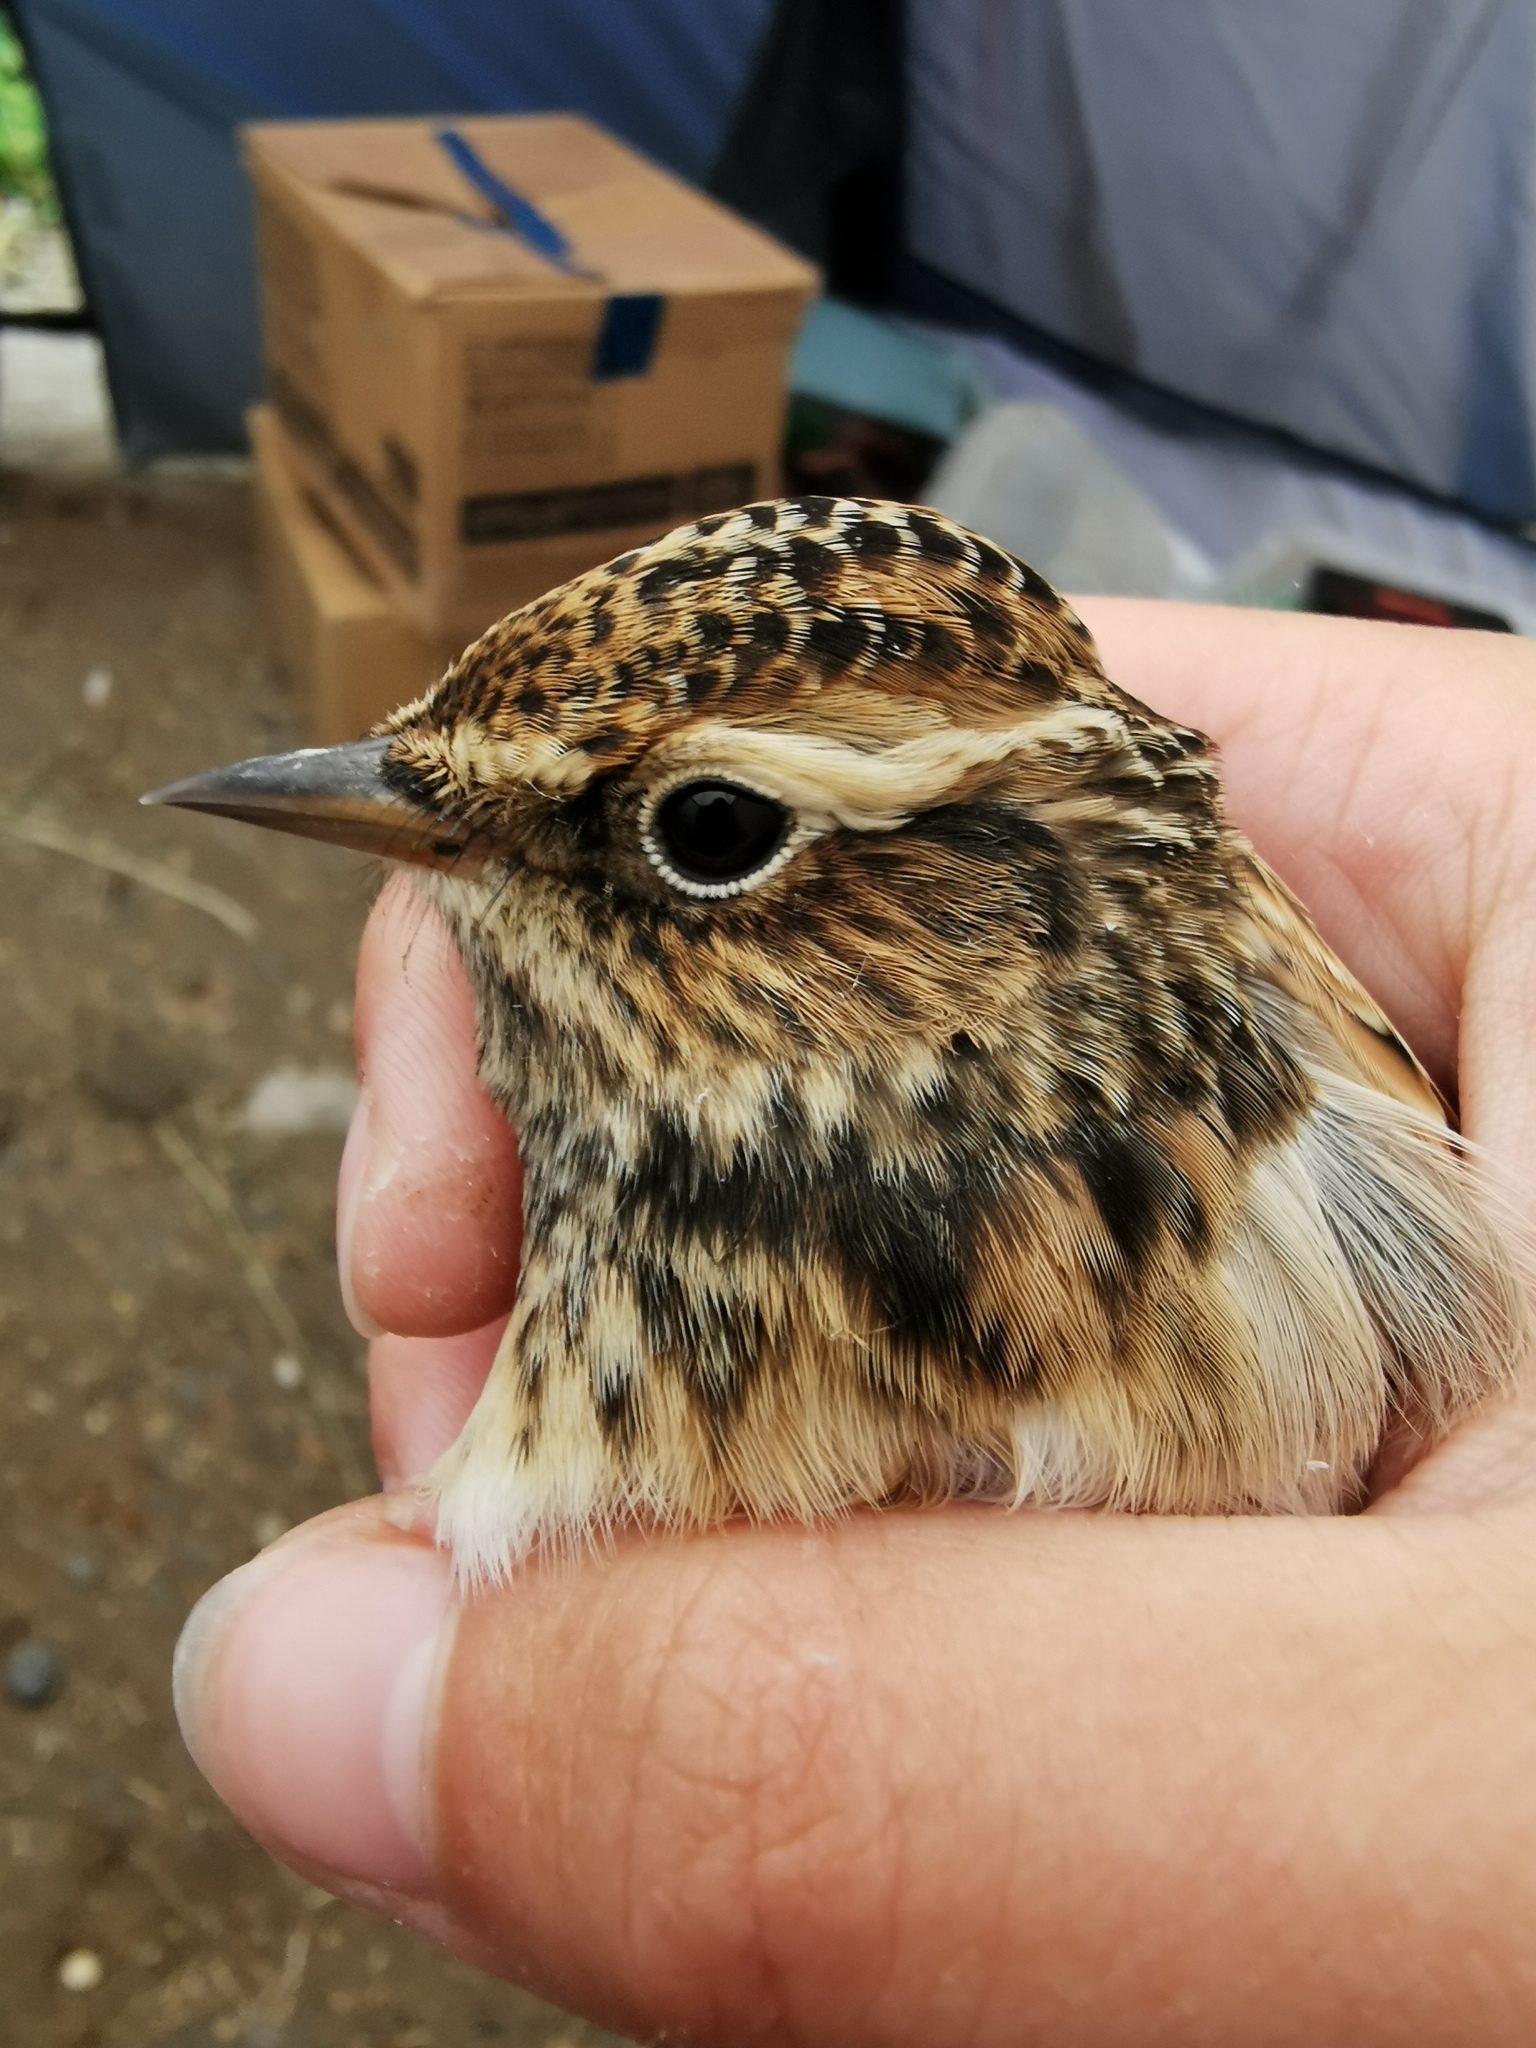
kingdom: Animalia
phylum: Chordata
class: Aves
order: Passeriformes
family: Alaudidae
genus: Alauda
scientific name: Alauda arvensis
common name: Eurasian skylark
